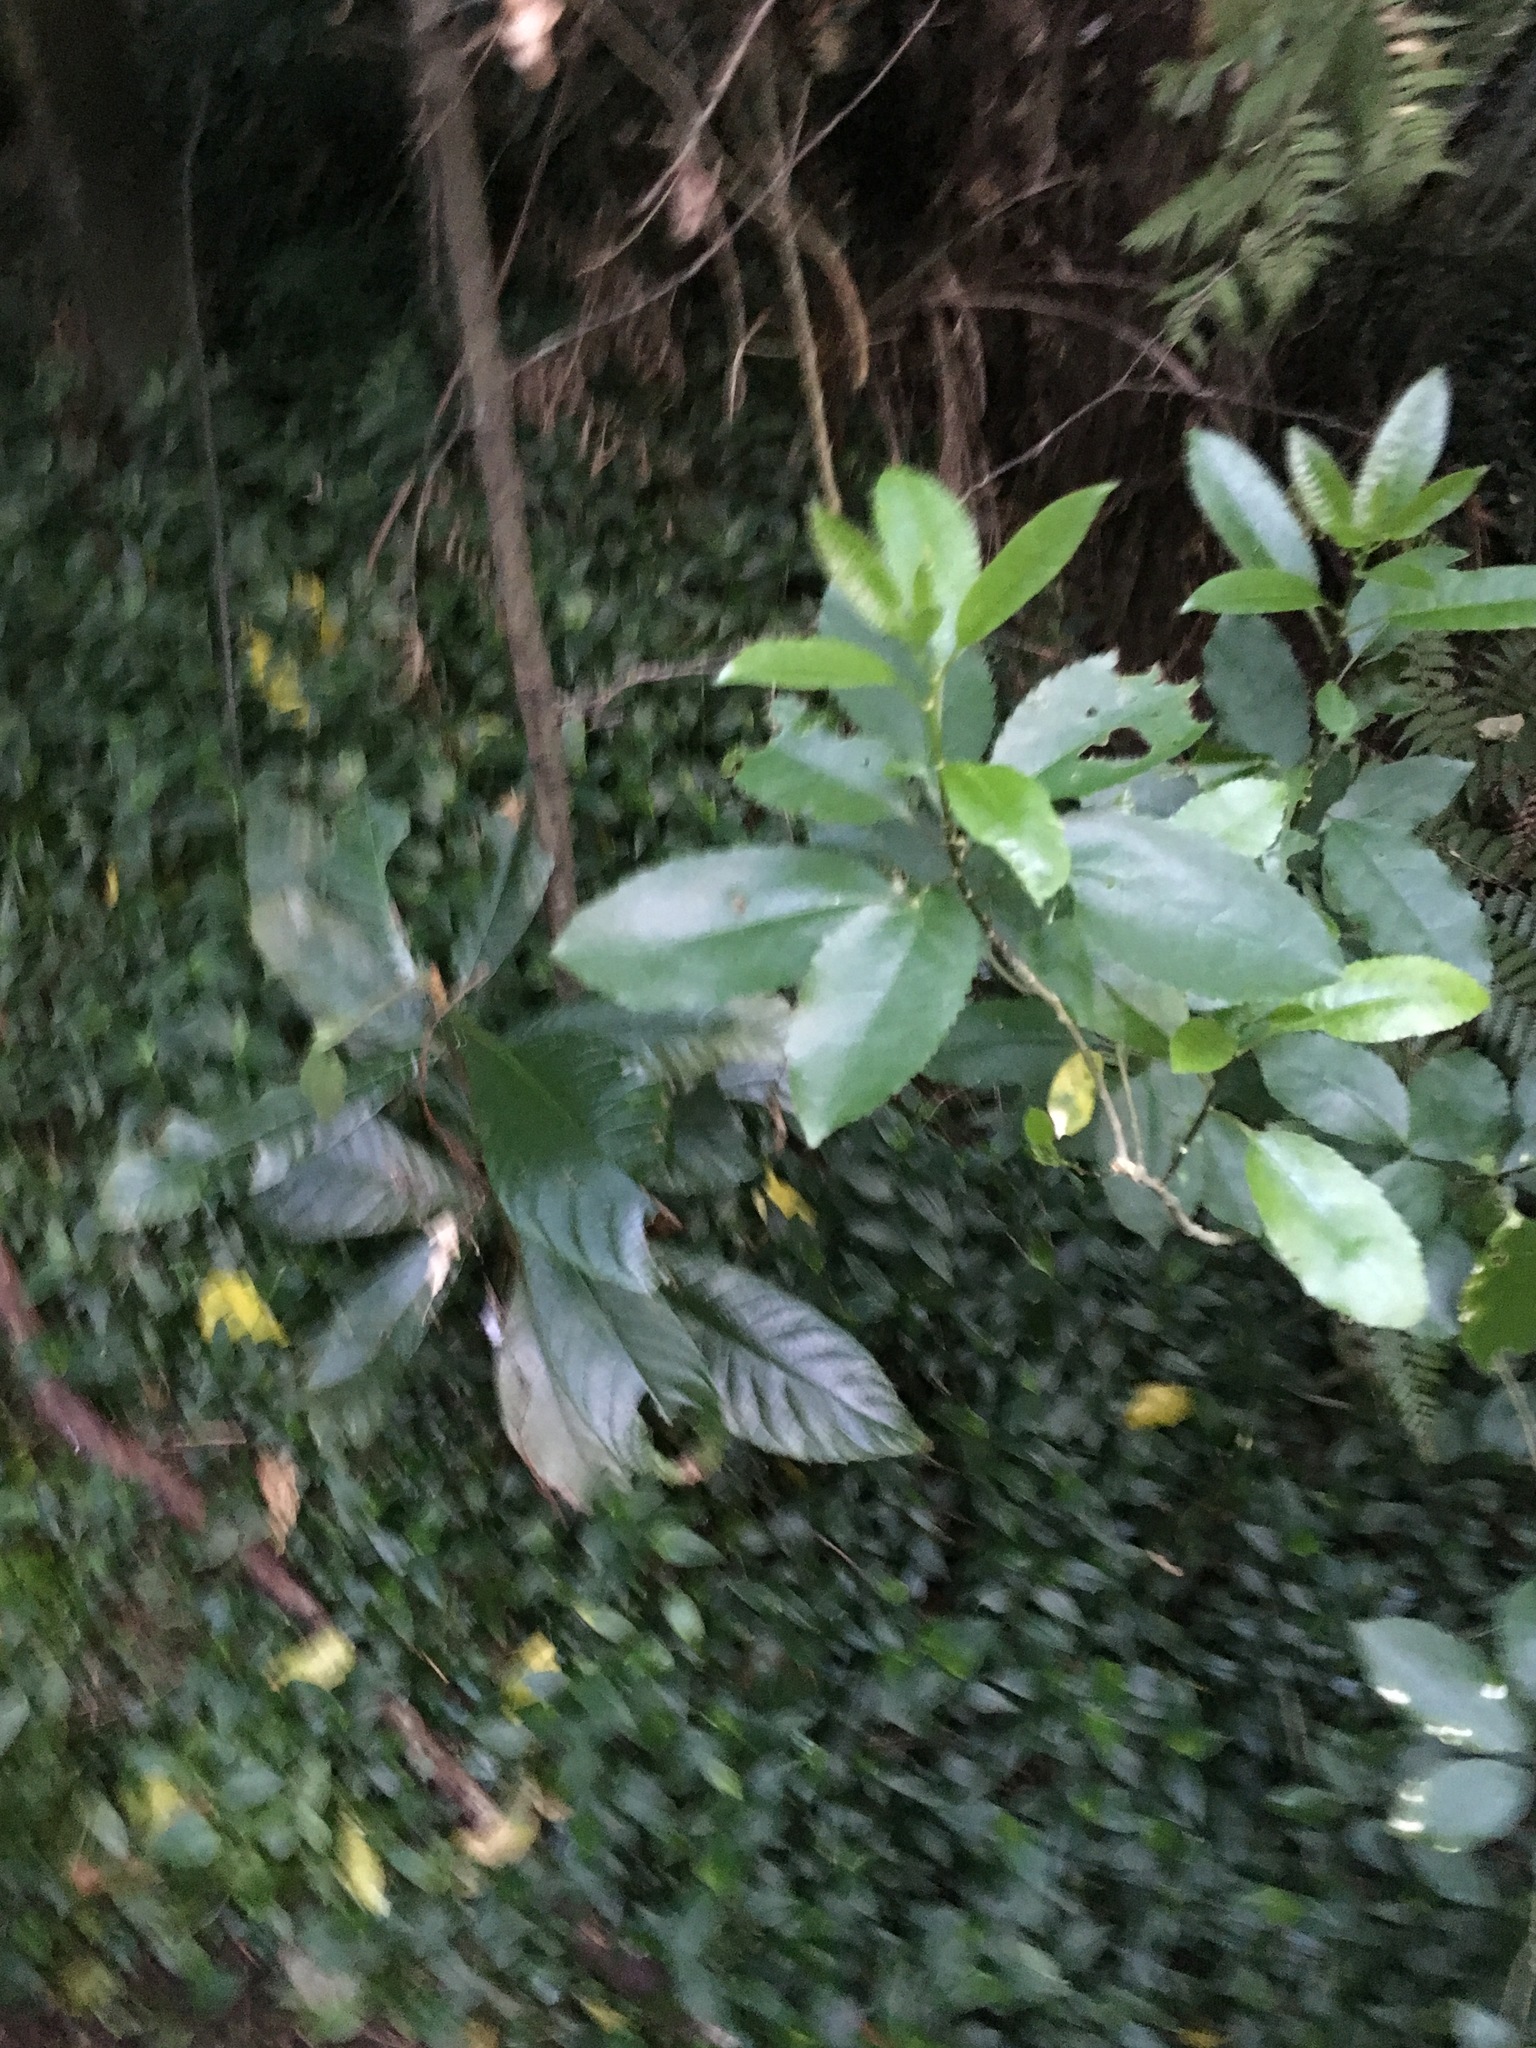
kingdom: Plantae
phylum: Tracheophyta
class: Magnoliopsida
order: Malpighiales
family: Violaceae
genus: Melicytus
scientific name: Melicytus ramiflorus
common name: Mahoe
